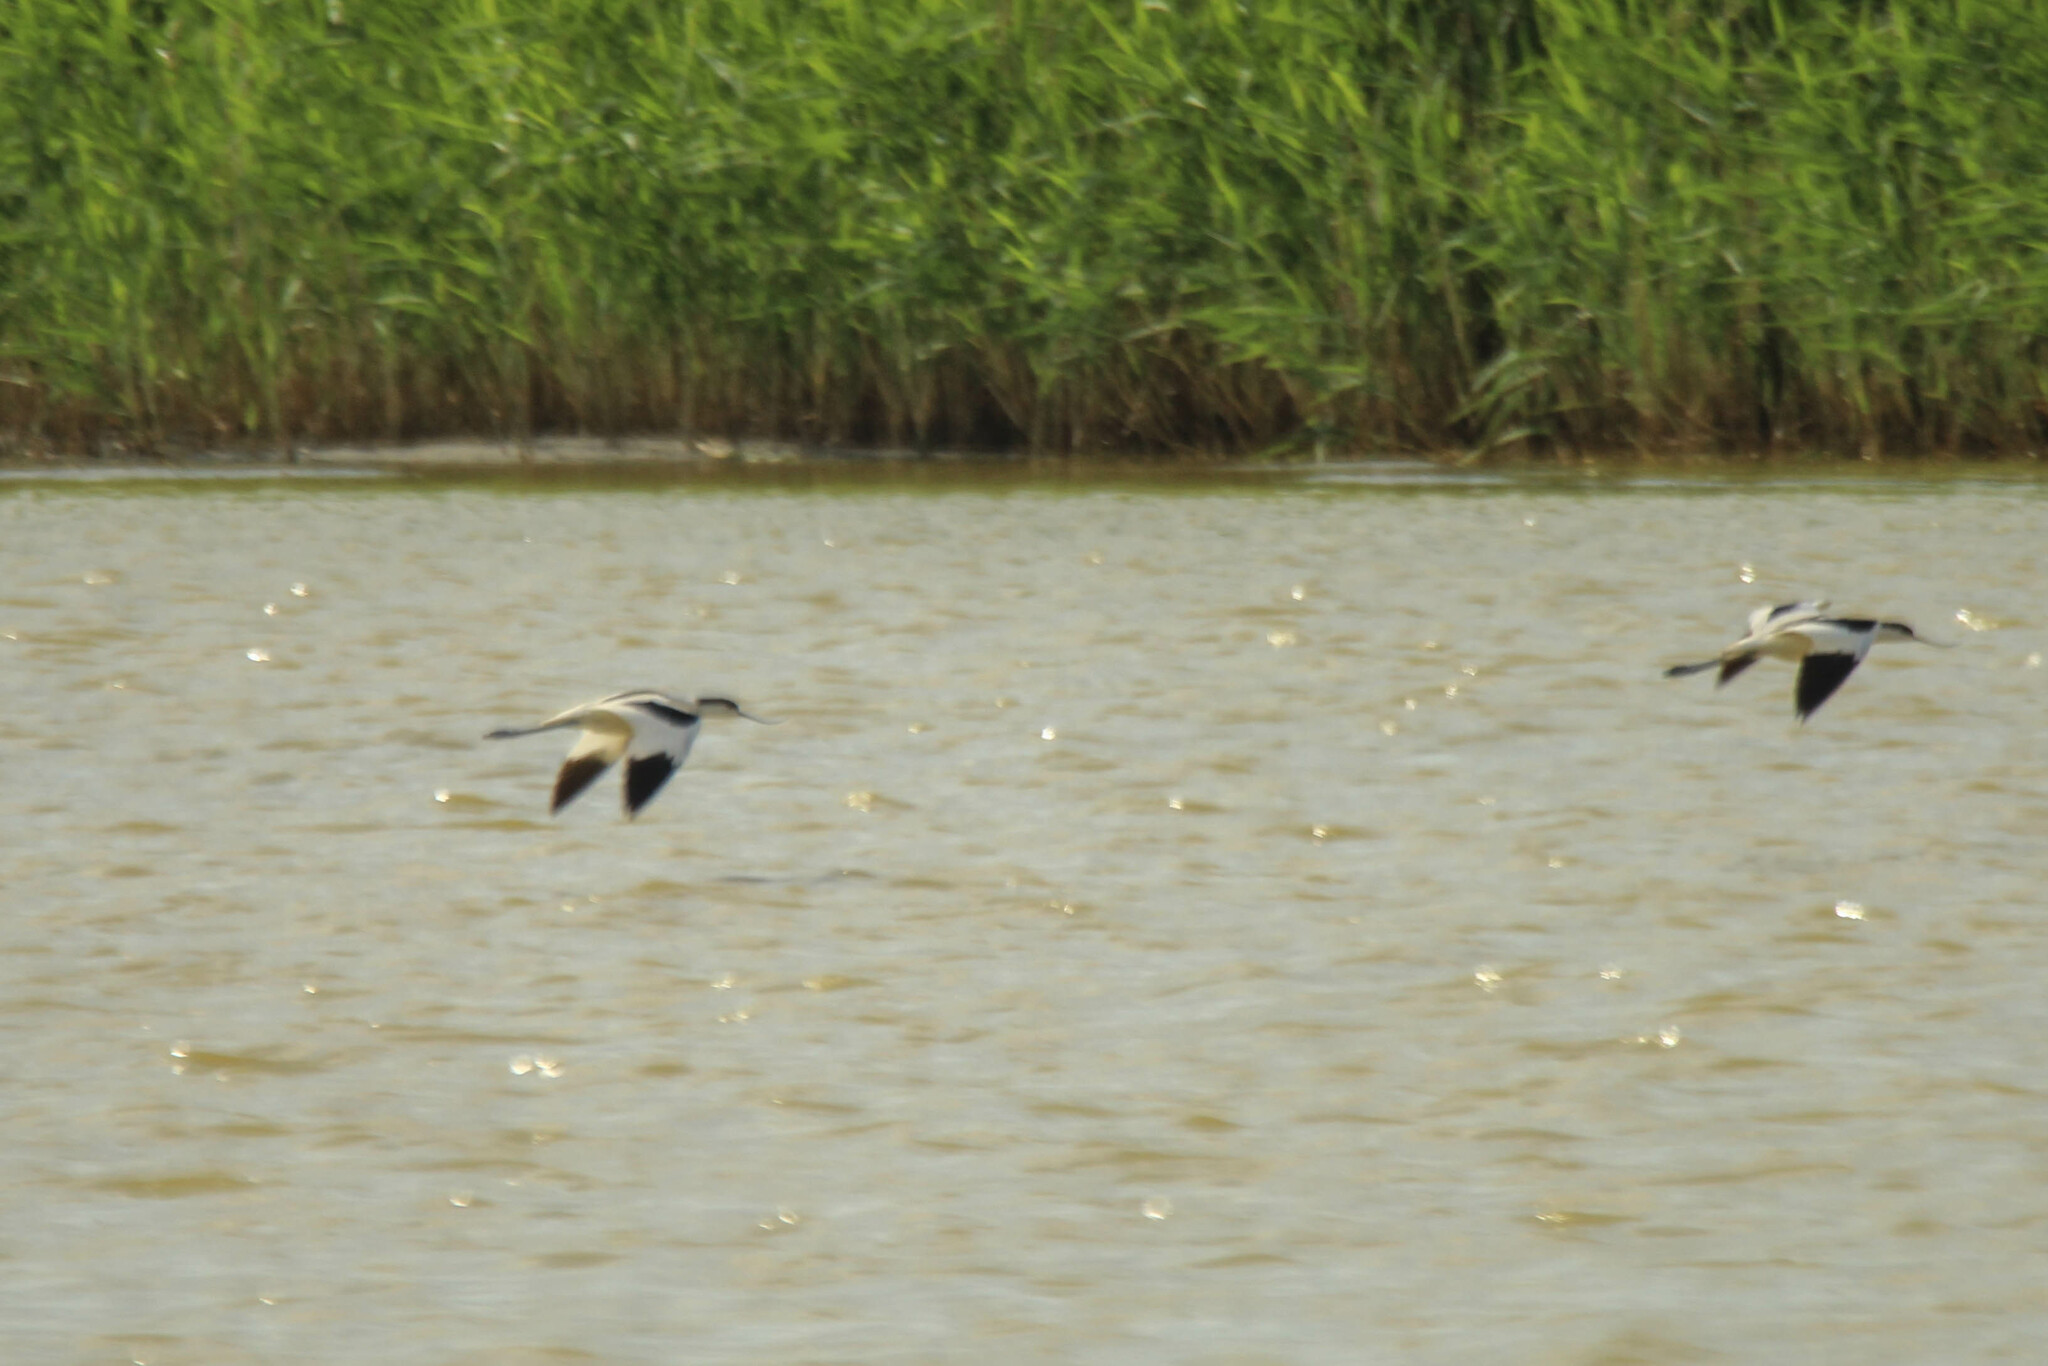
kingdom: Animalia
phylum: Chordata
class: Aves
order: Charadriiformes
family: Recurvirostridae
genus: Recurvirostra
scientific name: Recurvirostra avosetta
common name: Pied avocet
